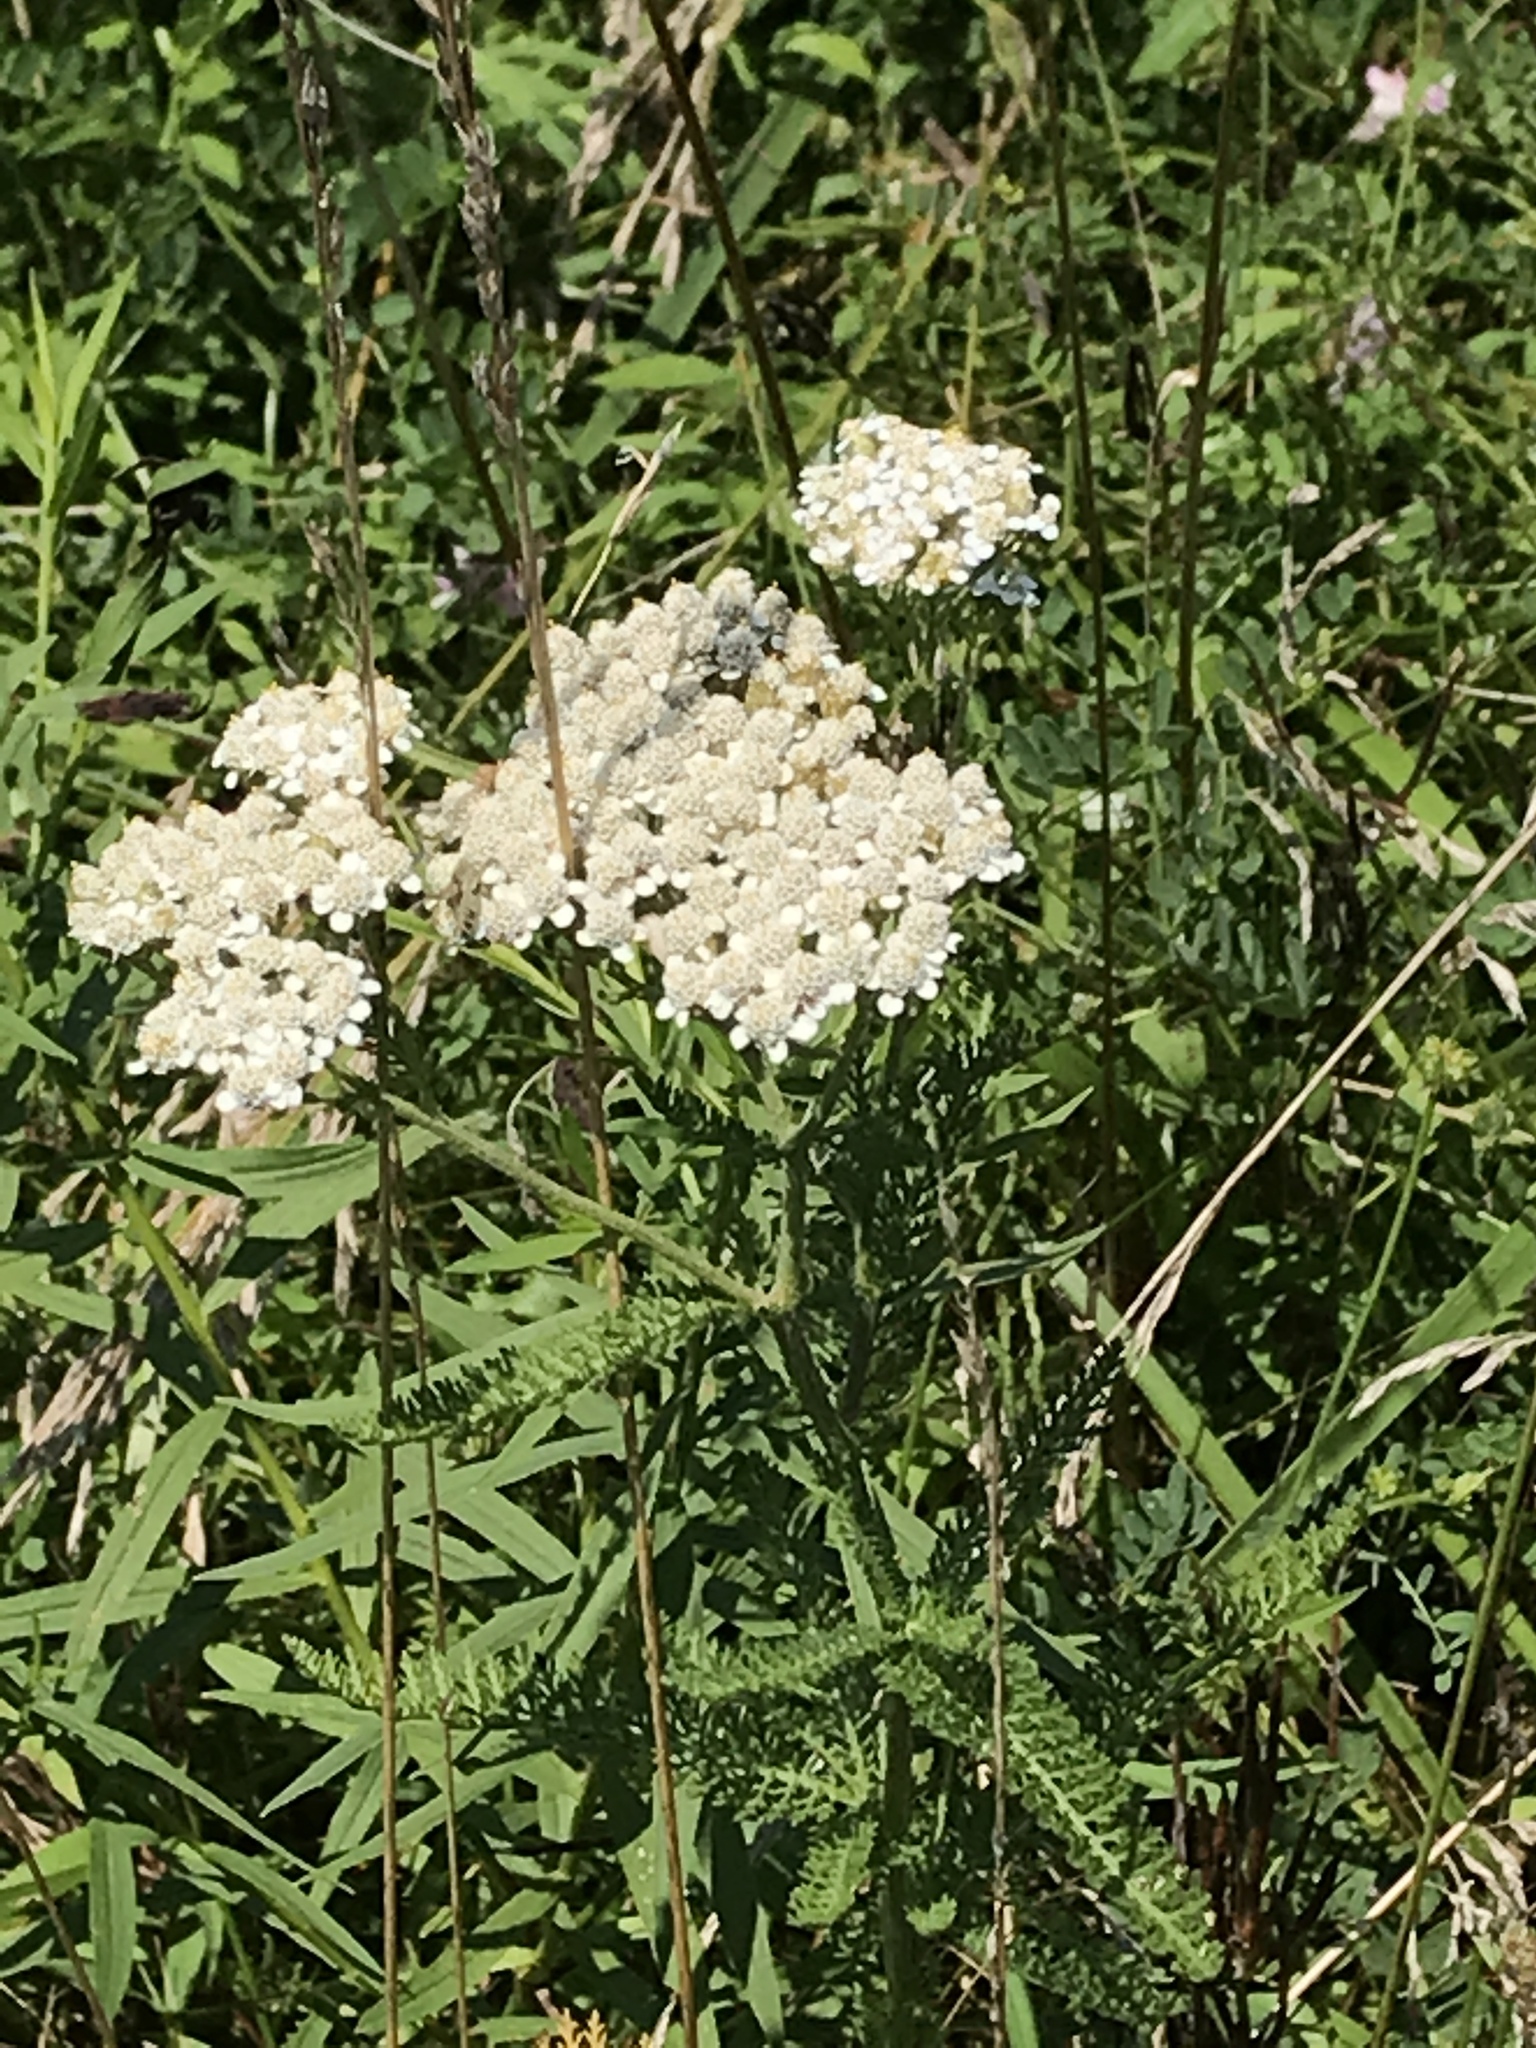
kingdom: Plantae
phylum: Tracheophyta
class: Magnoliopsida
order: Asterales
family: Asteraceae
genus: Achillea
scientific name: Achillea millefolium
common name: Yarrow
